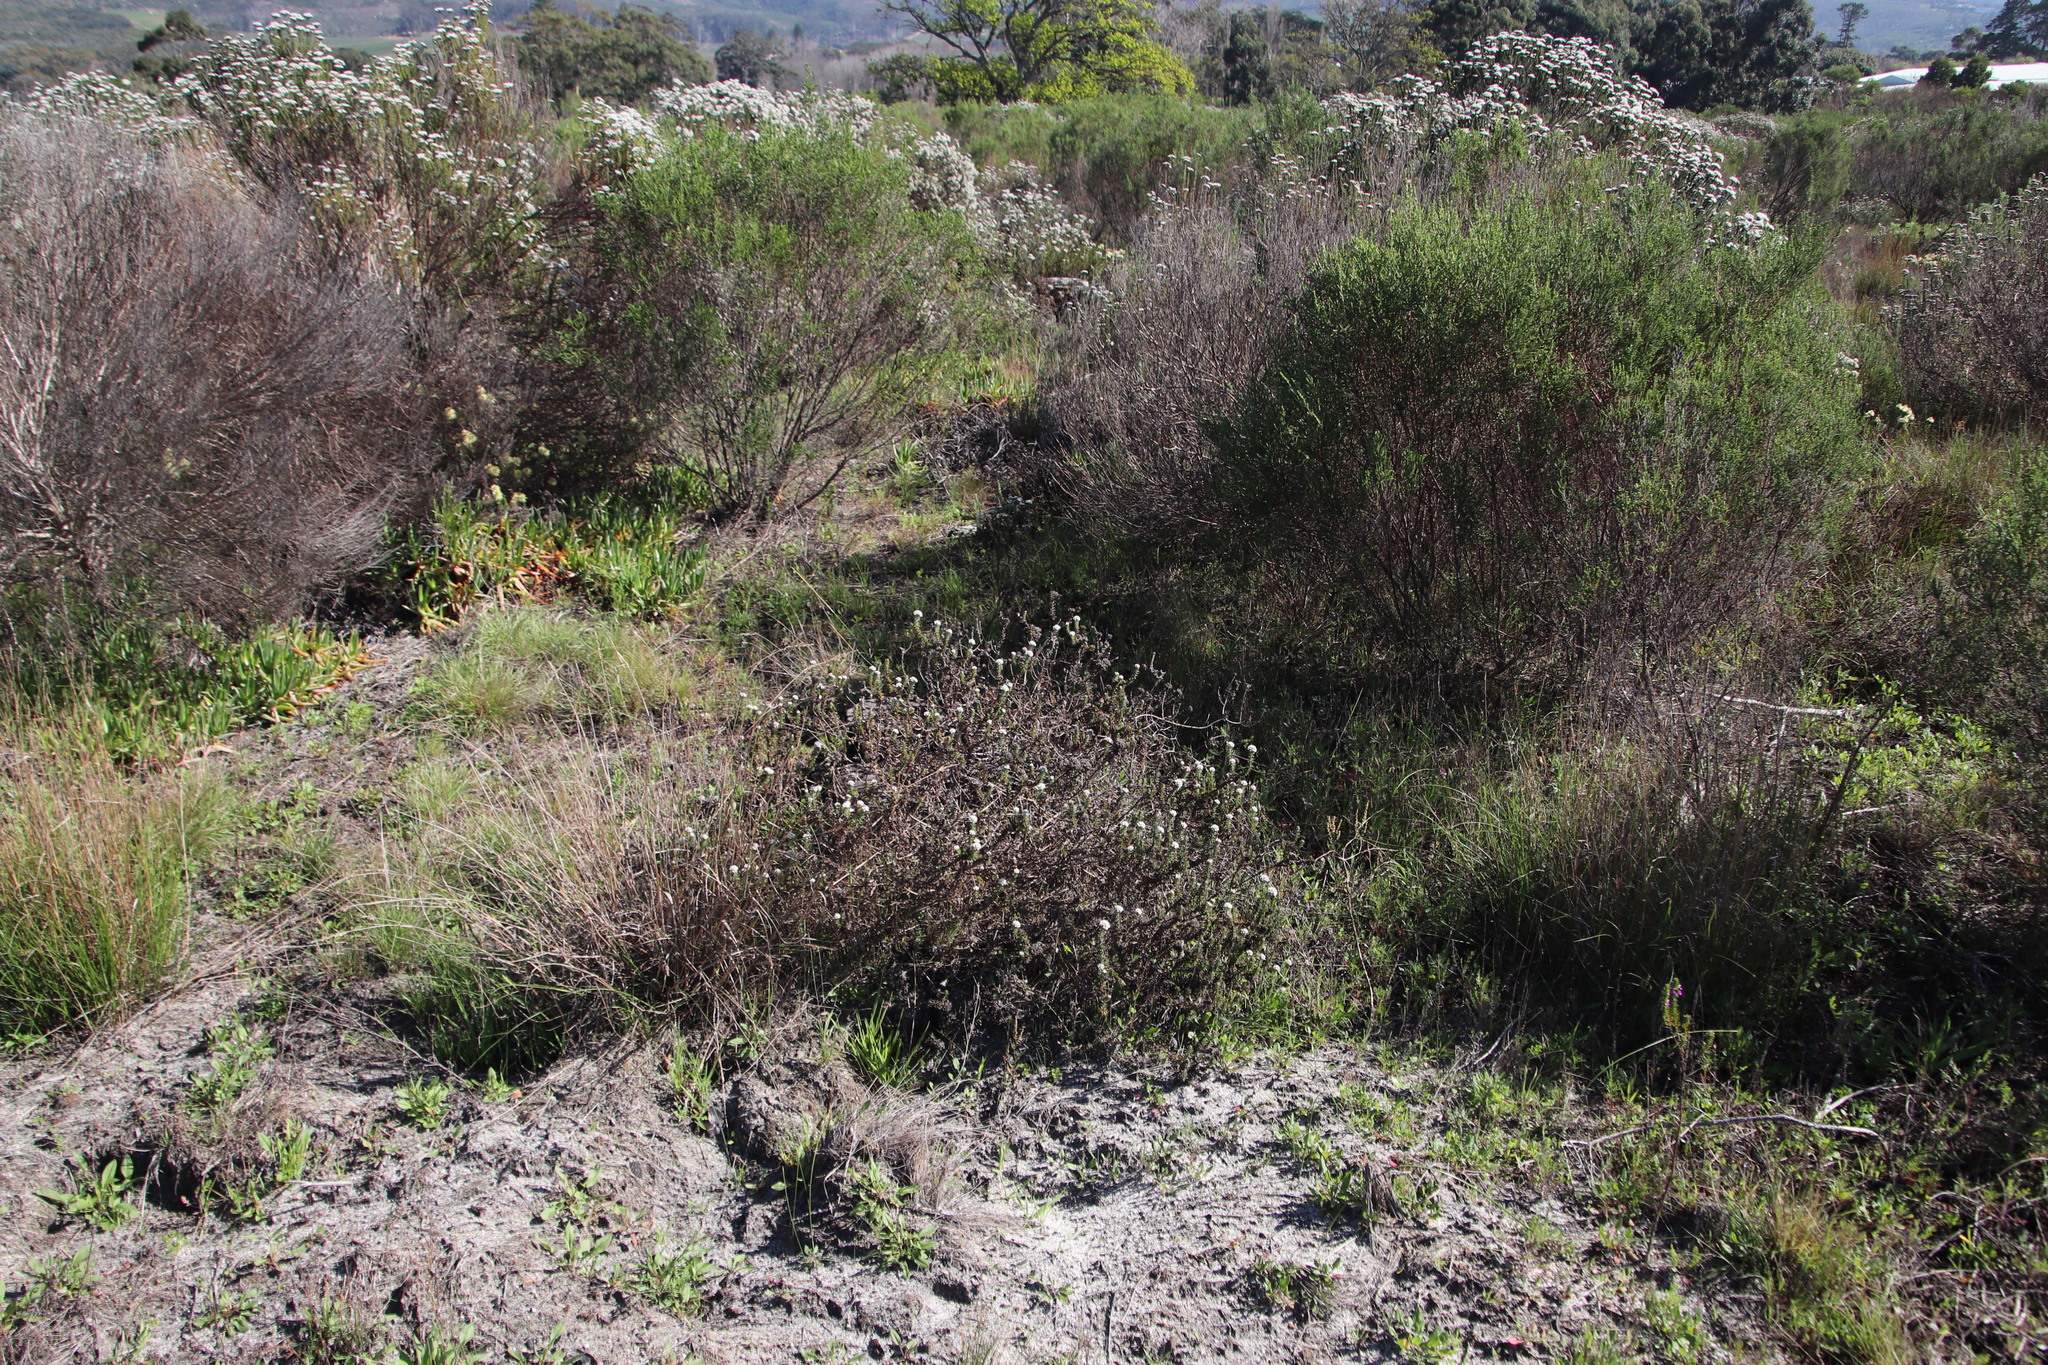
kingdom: Plantae
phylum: Tracheophyta
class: Magnoliopsida
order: Asterales
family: Asteraceae
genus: Metalasia
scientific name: Metalasia pulchella
